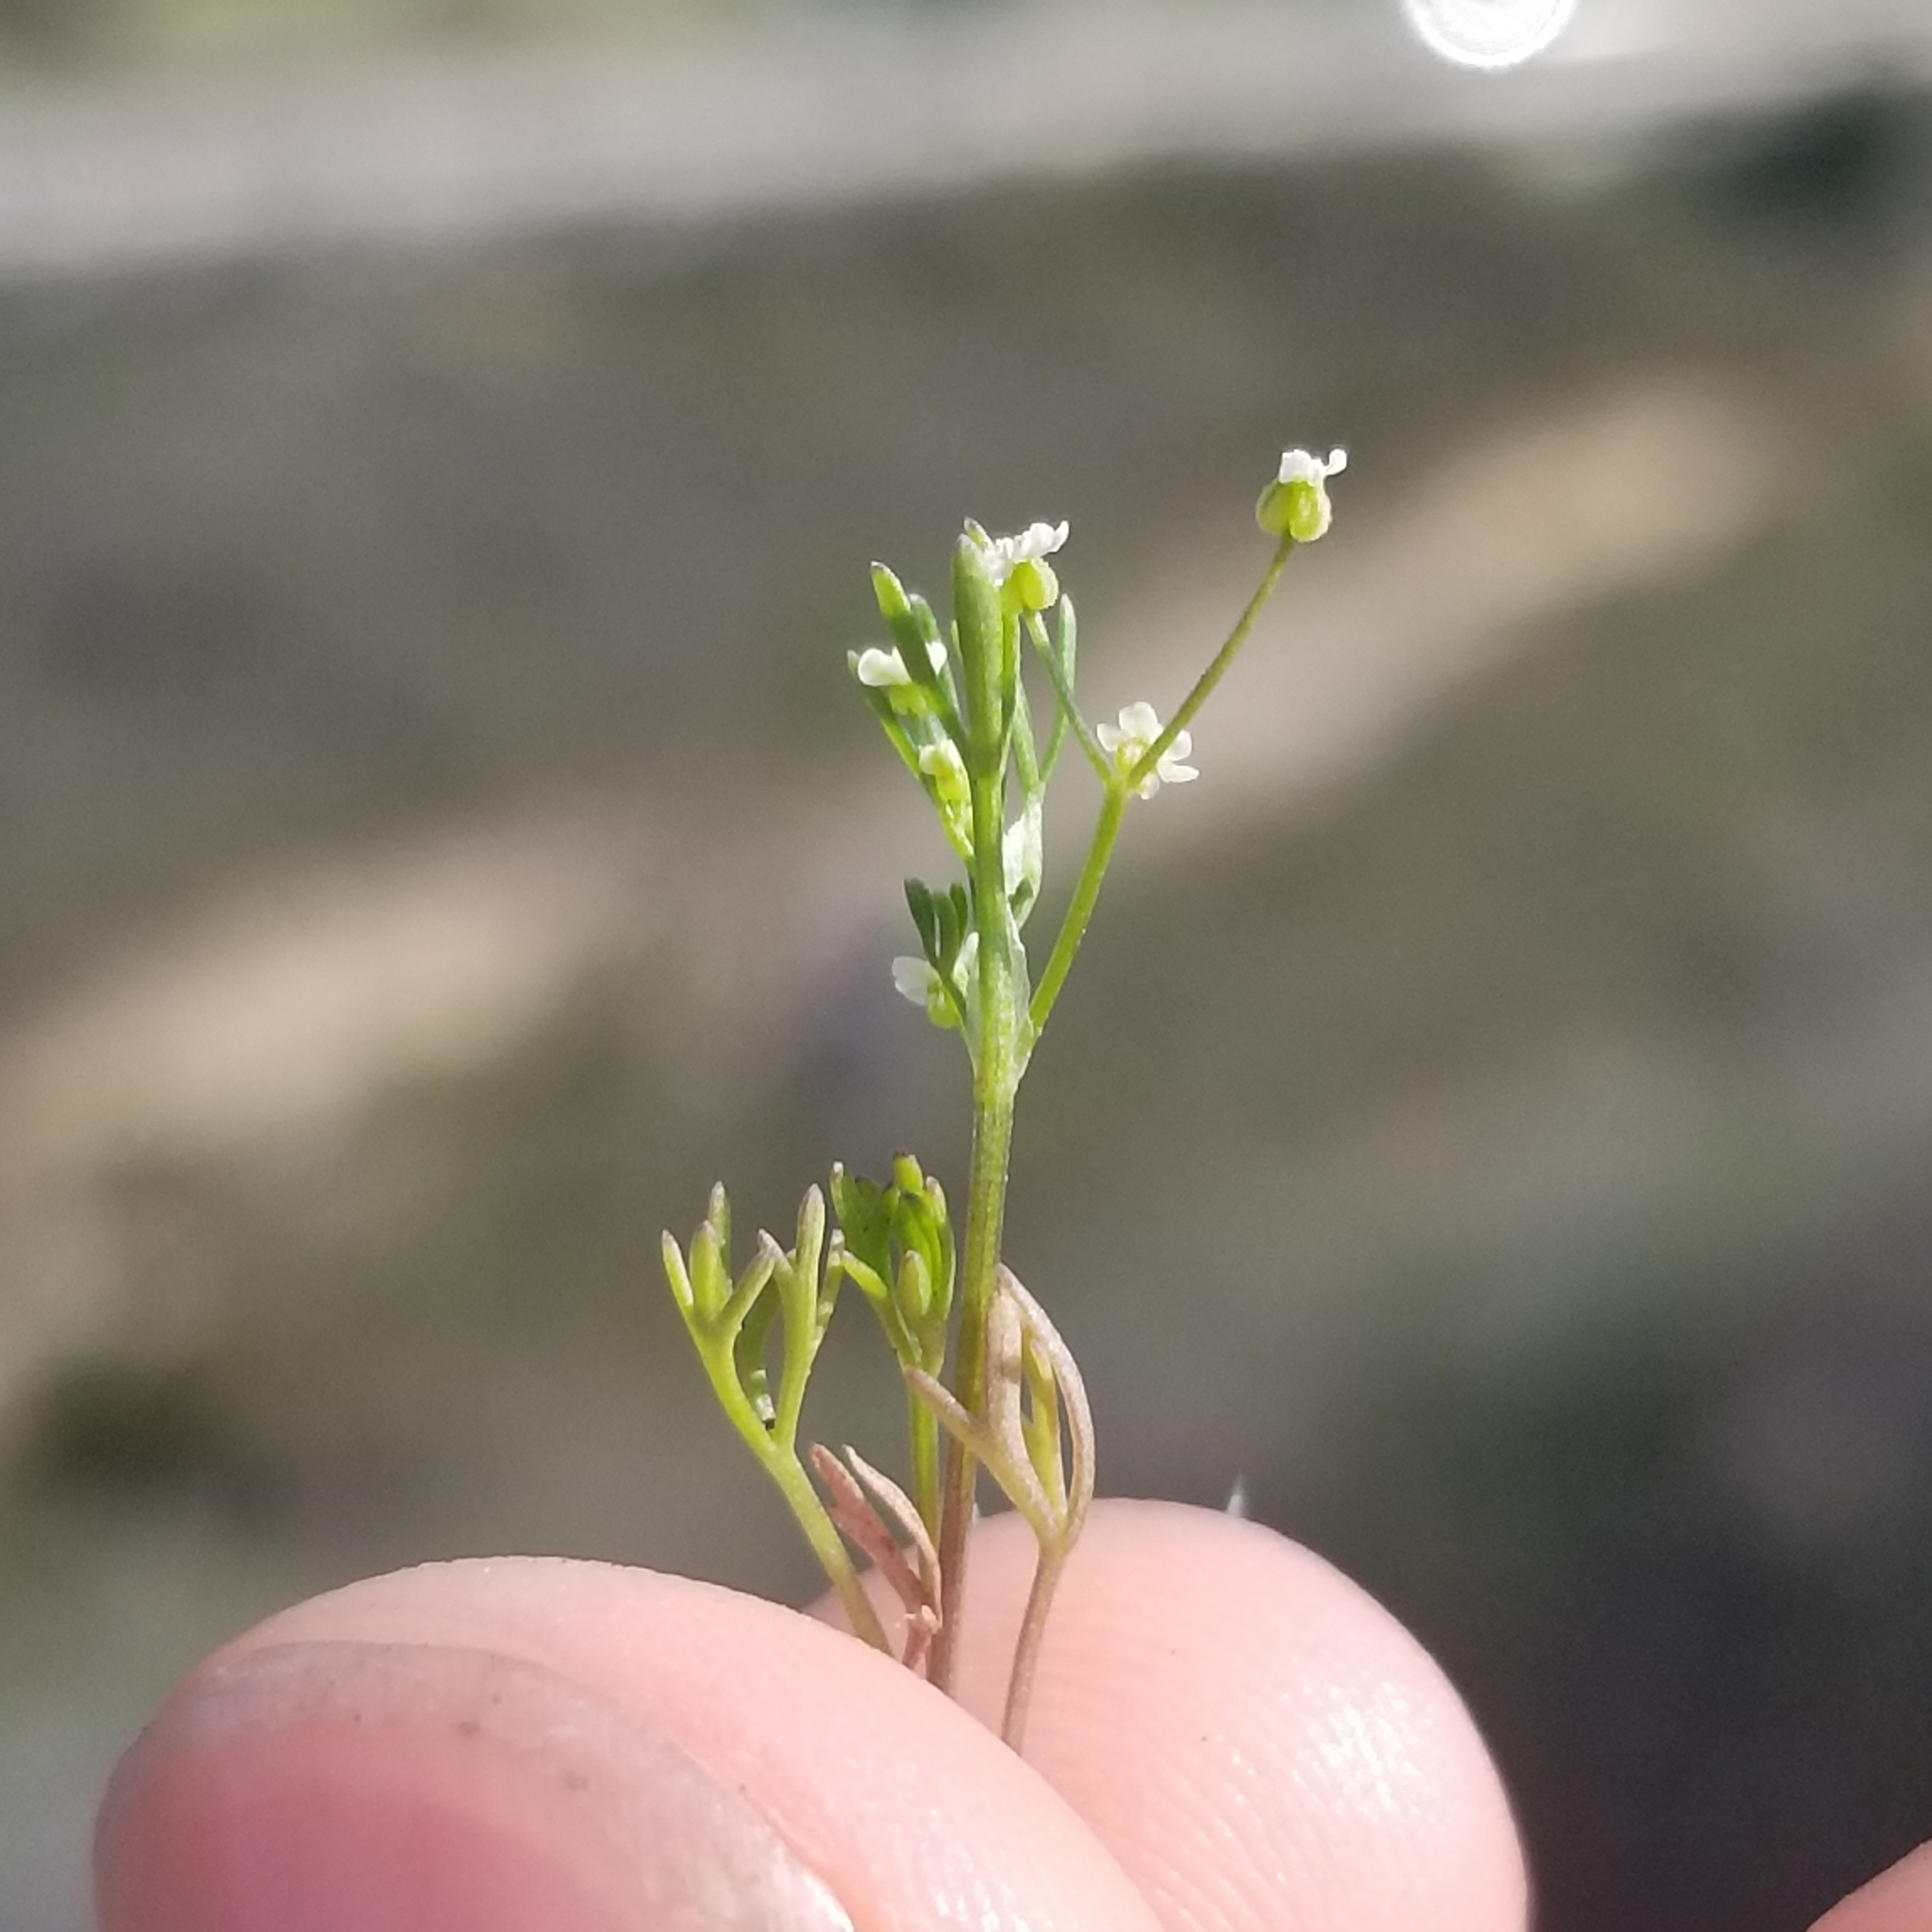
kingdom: Plantae
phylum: Tracheophyta
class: Magnoliopsida
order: Apiales
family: Apiaceae
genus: Apiastrum
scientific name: Apiastrum angustifolium
